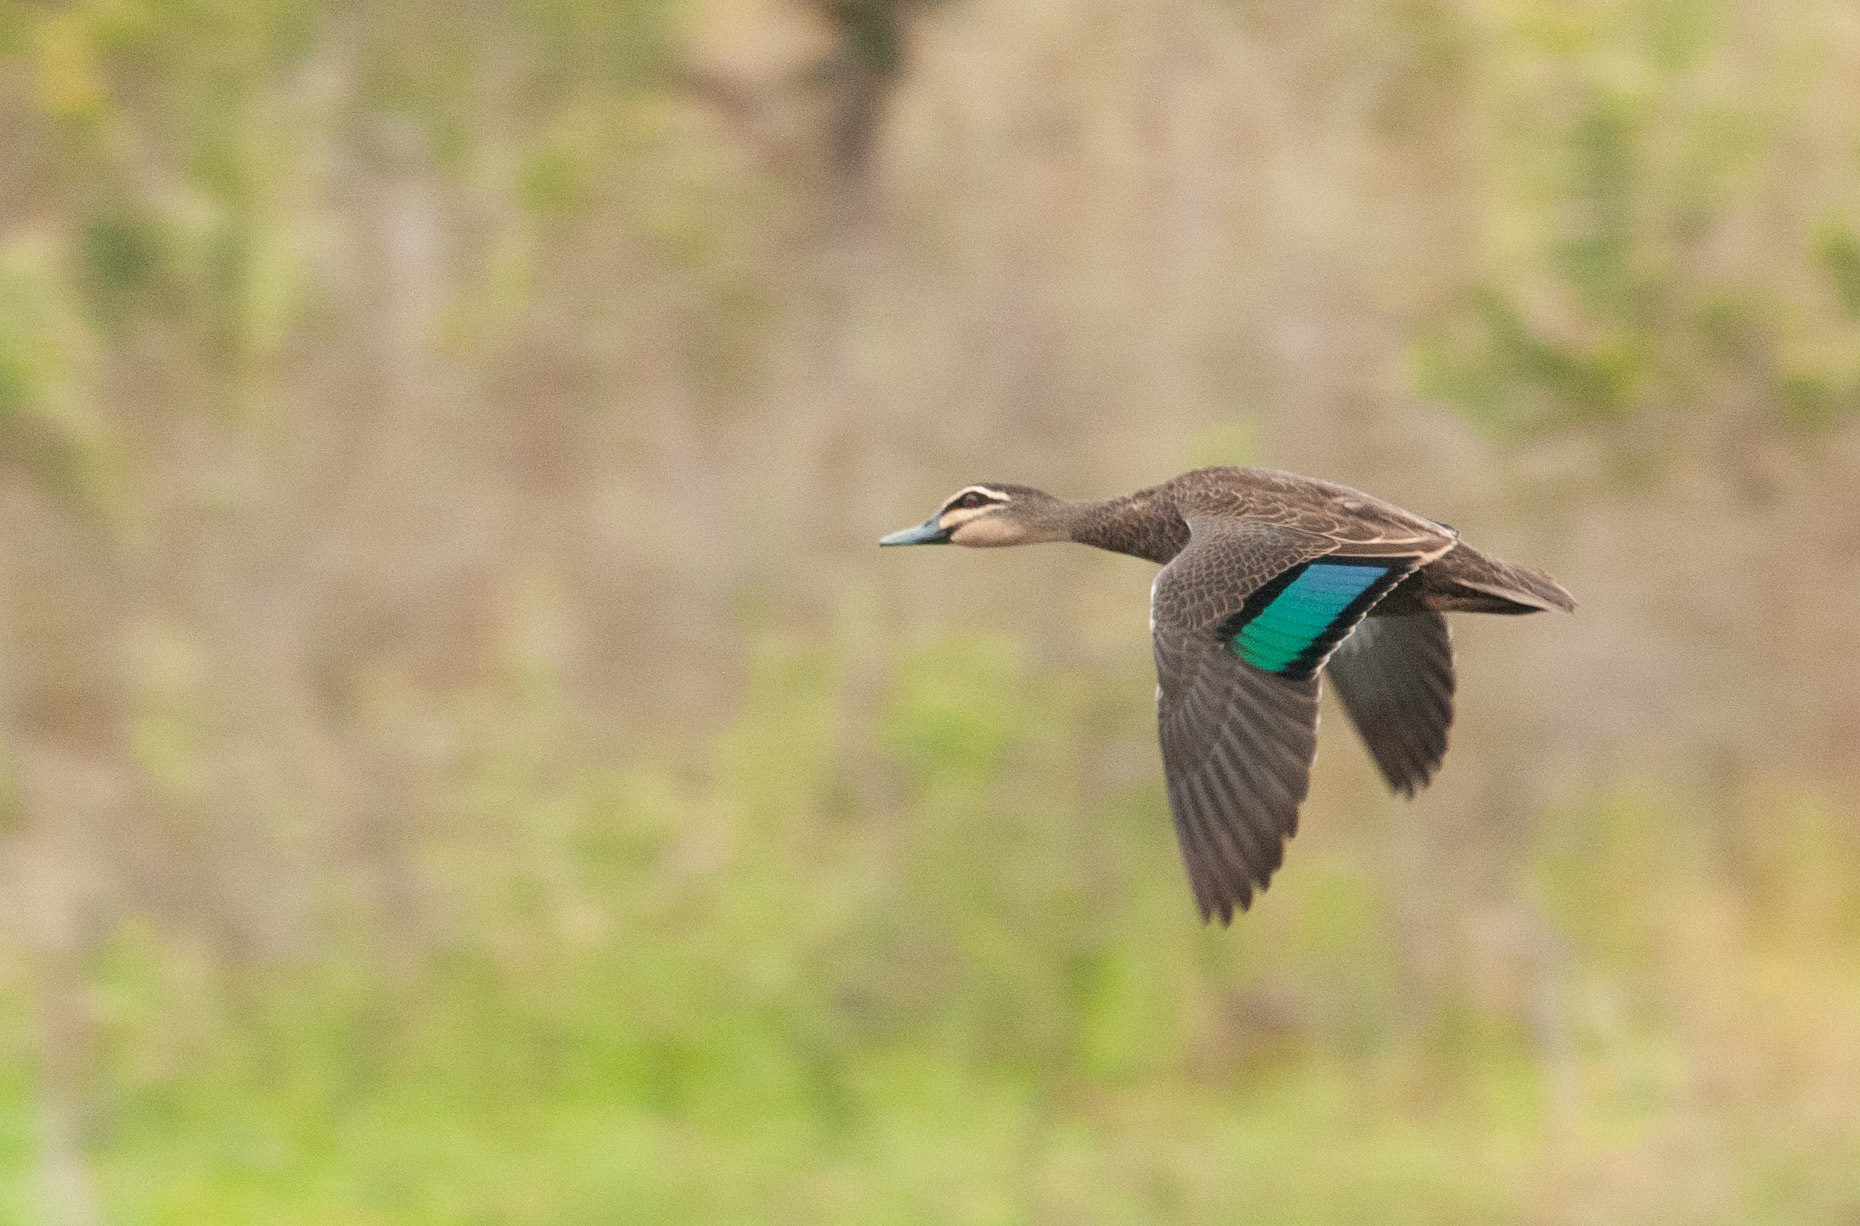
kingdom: Animalia
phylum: Chordata
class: Aves
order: Anseriformes
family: Anatidae
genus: Anas
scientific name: Anas superciliosa
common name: Pacific black duck
